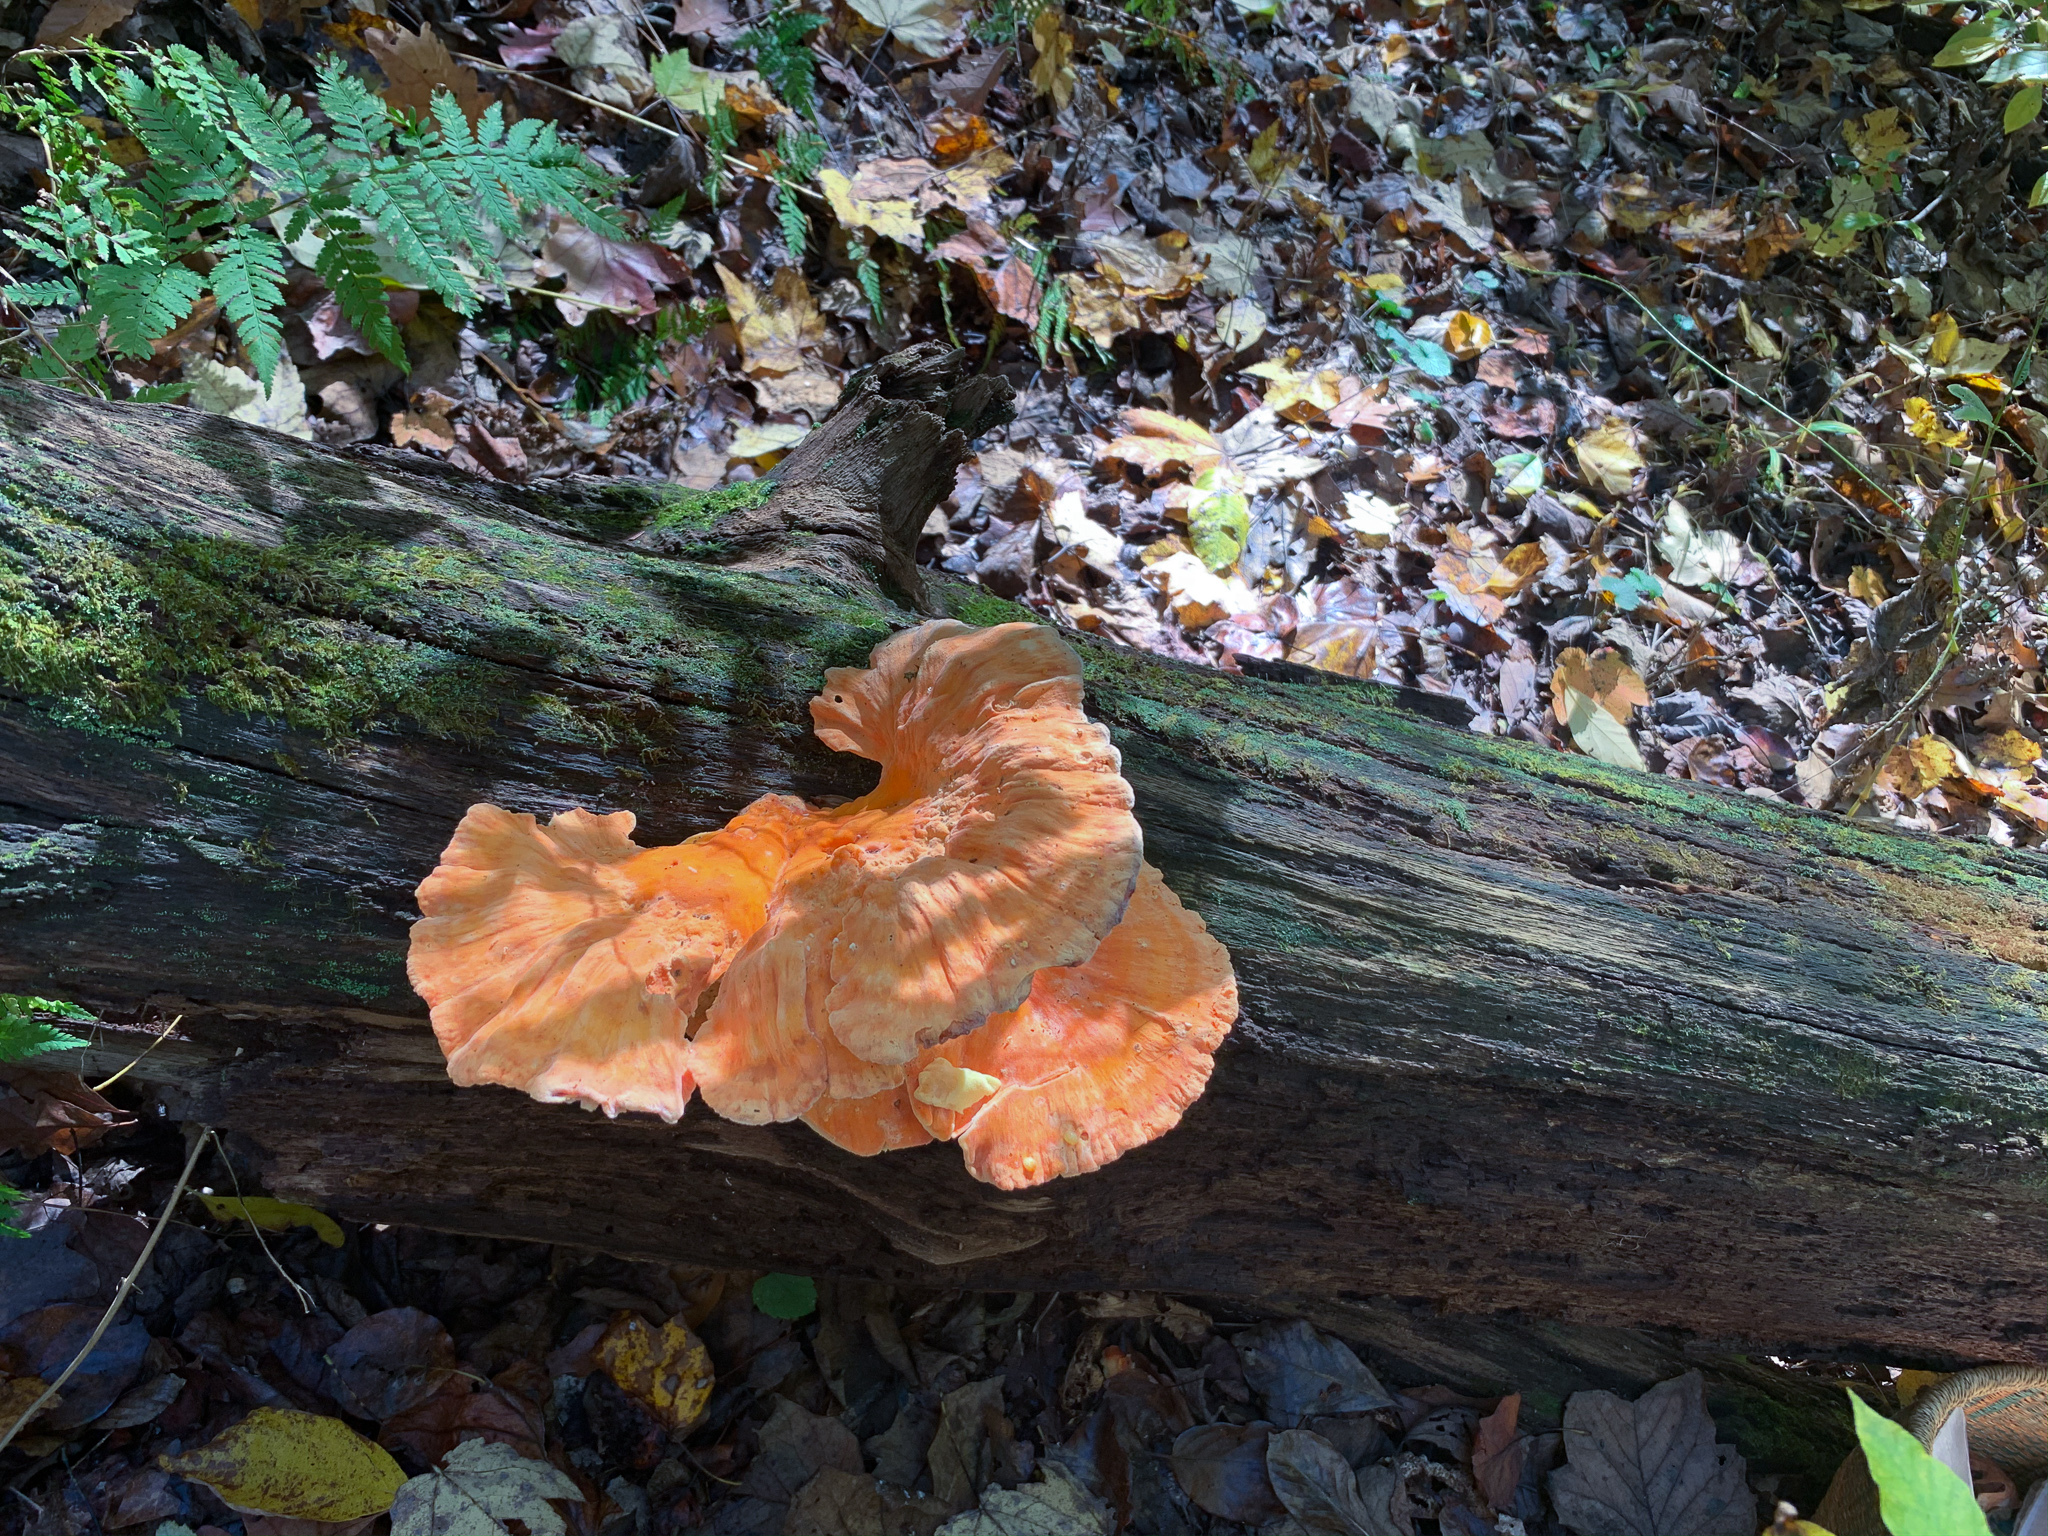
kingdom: Fungi
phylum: Basidiomycota
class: Agaricomycetes
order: Polyporales
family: Laetiporaceae
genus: Laetiporus
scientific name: Laetiporus sulphureus
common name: Chicken of the woods
